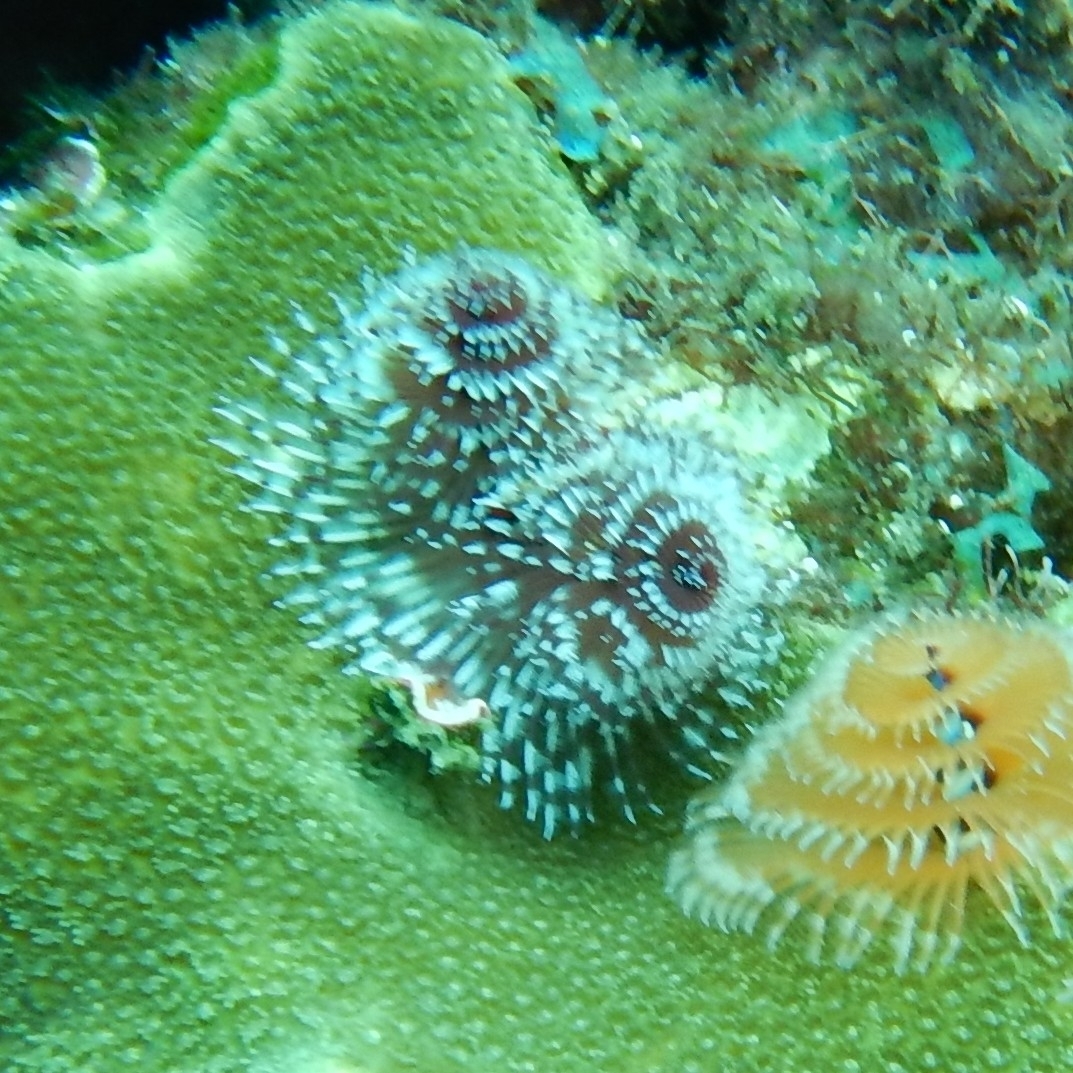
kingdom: Animalia
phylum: Annelida
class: Polychaeta
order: Sabellida
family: Serpulidae
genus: Spirobranchus
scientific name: Spirobranchus giganteus
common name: Christmas tree worm
